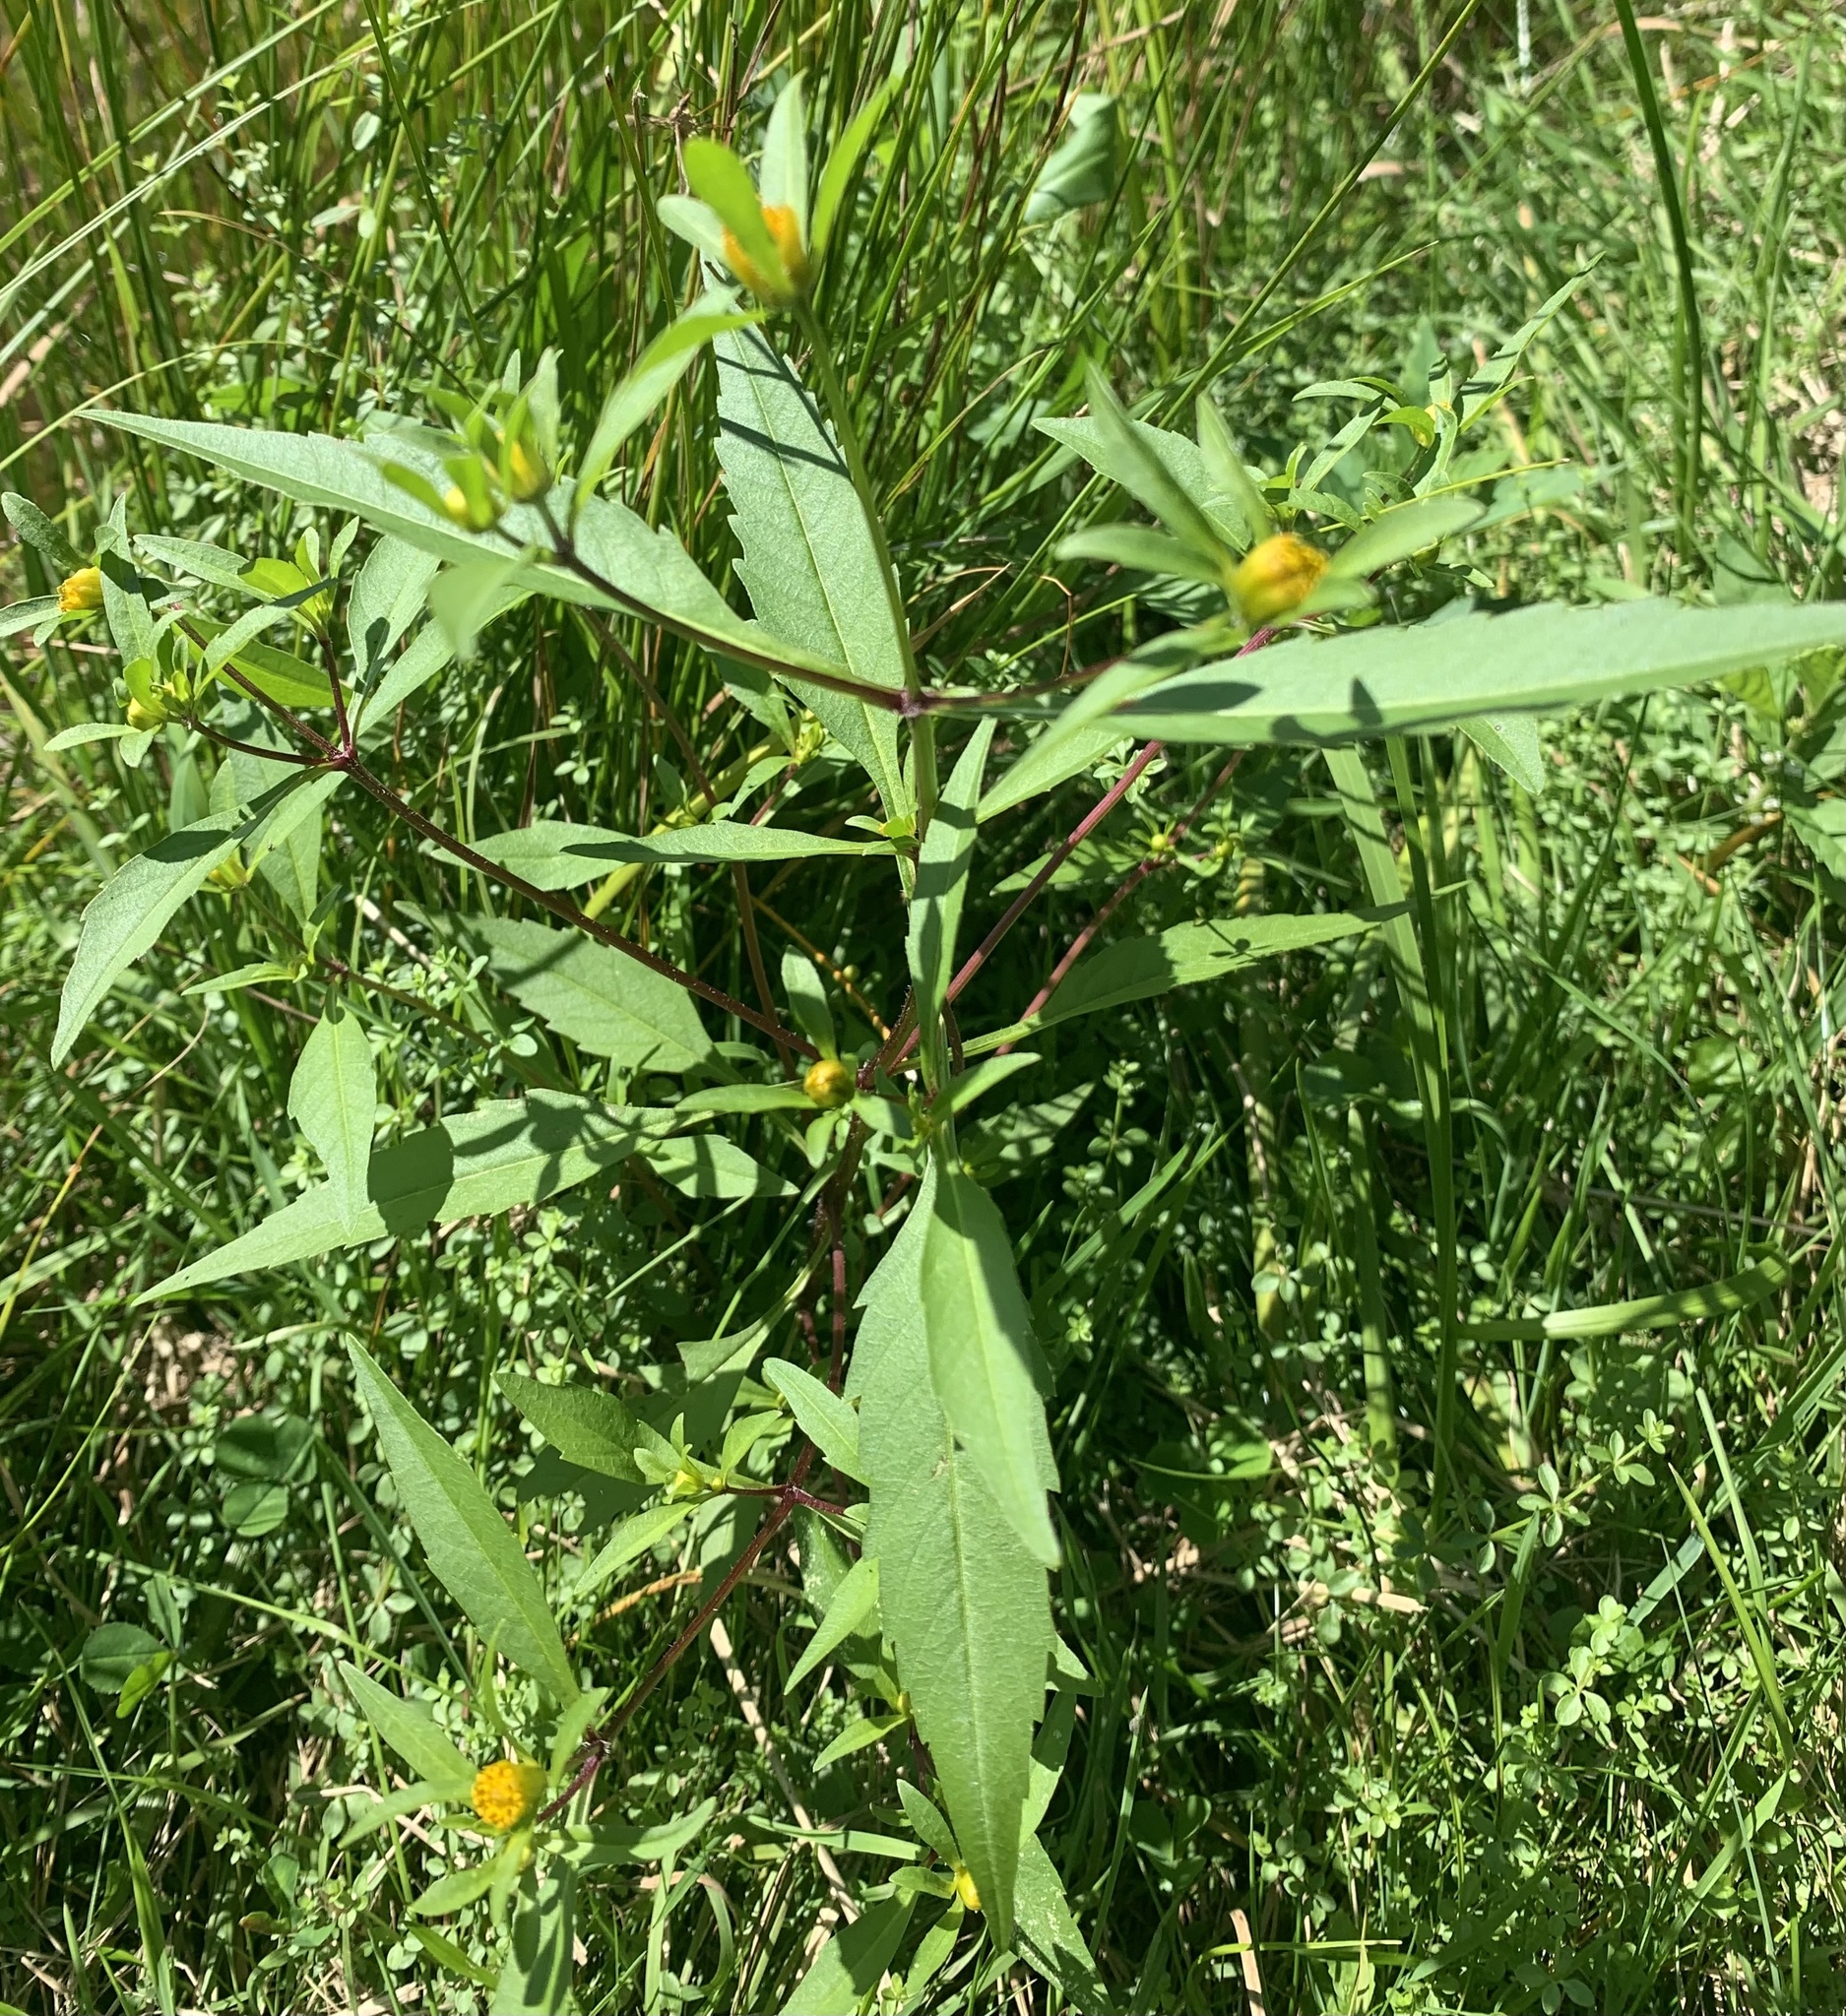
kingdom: Plantae
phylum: Tracheophyta
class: Magnoliopsida
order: Asterales
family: Asteraceae
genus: Bidens
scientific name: Bidens connata
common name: London bur-marigold
